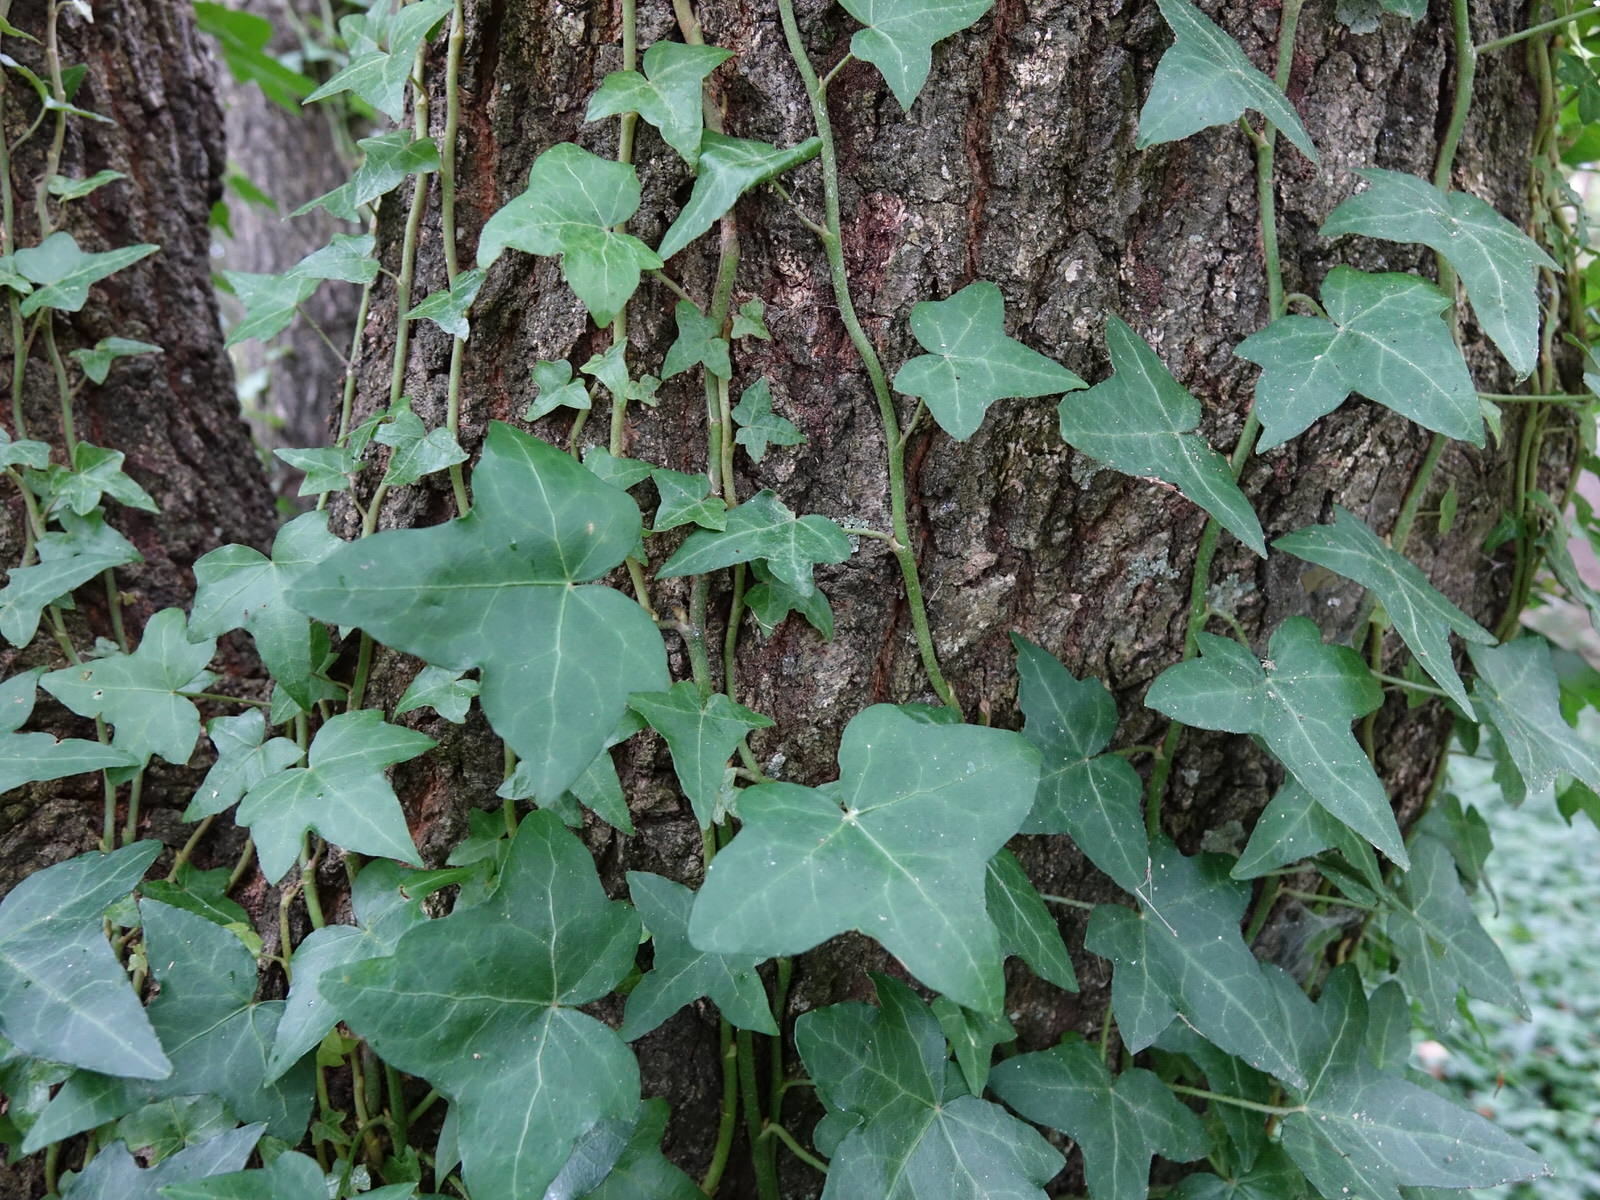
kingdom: Plantae
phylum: Tracheophyta
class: Magnoliopsida
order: Apiales
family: Araliaceae
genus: Hedera
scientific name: Hedera helix
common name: Ivy
